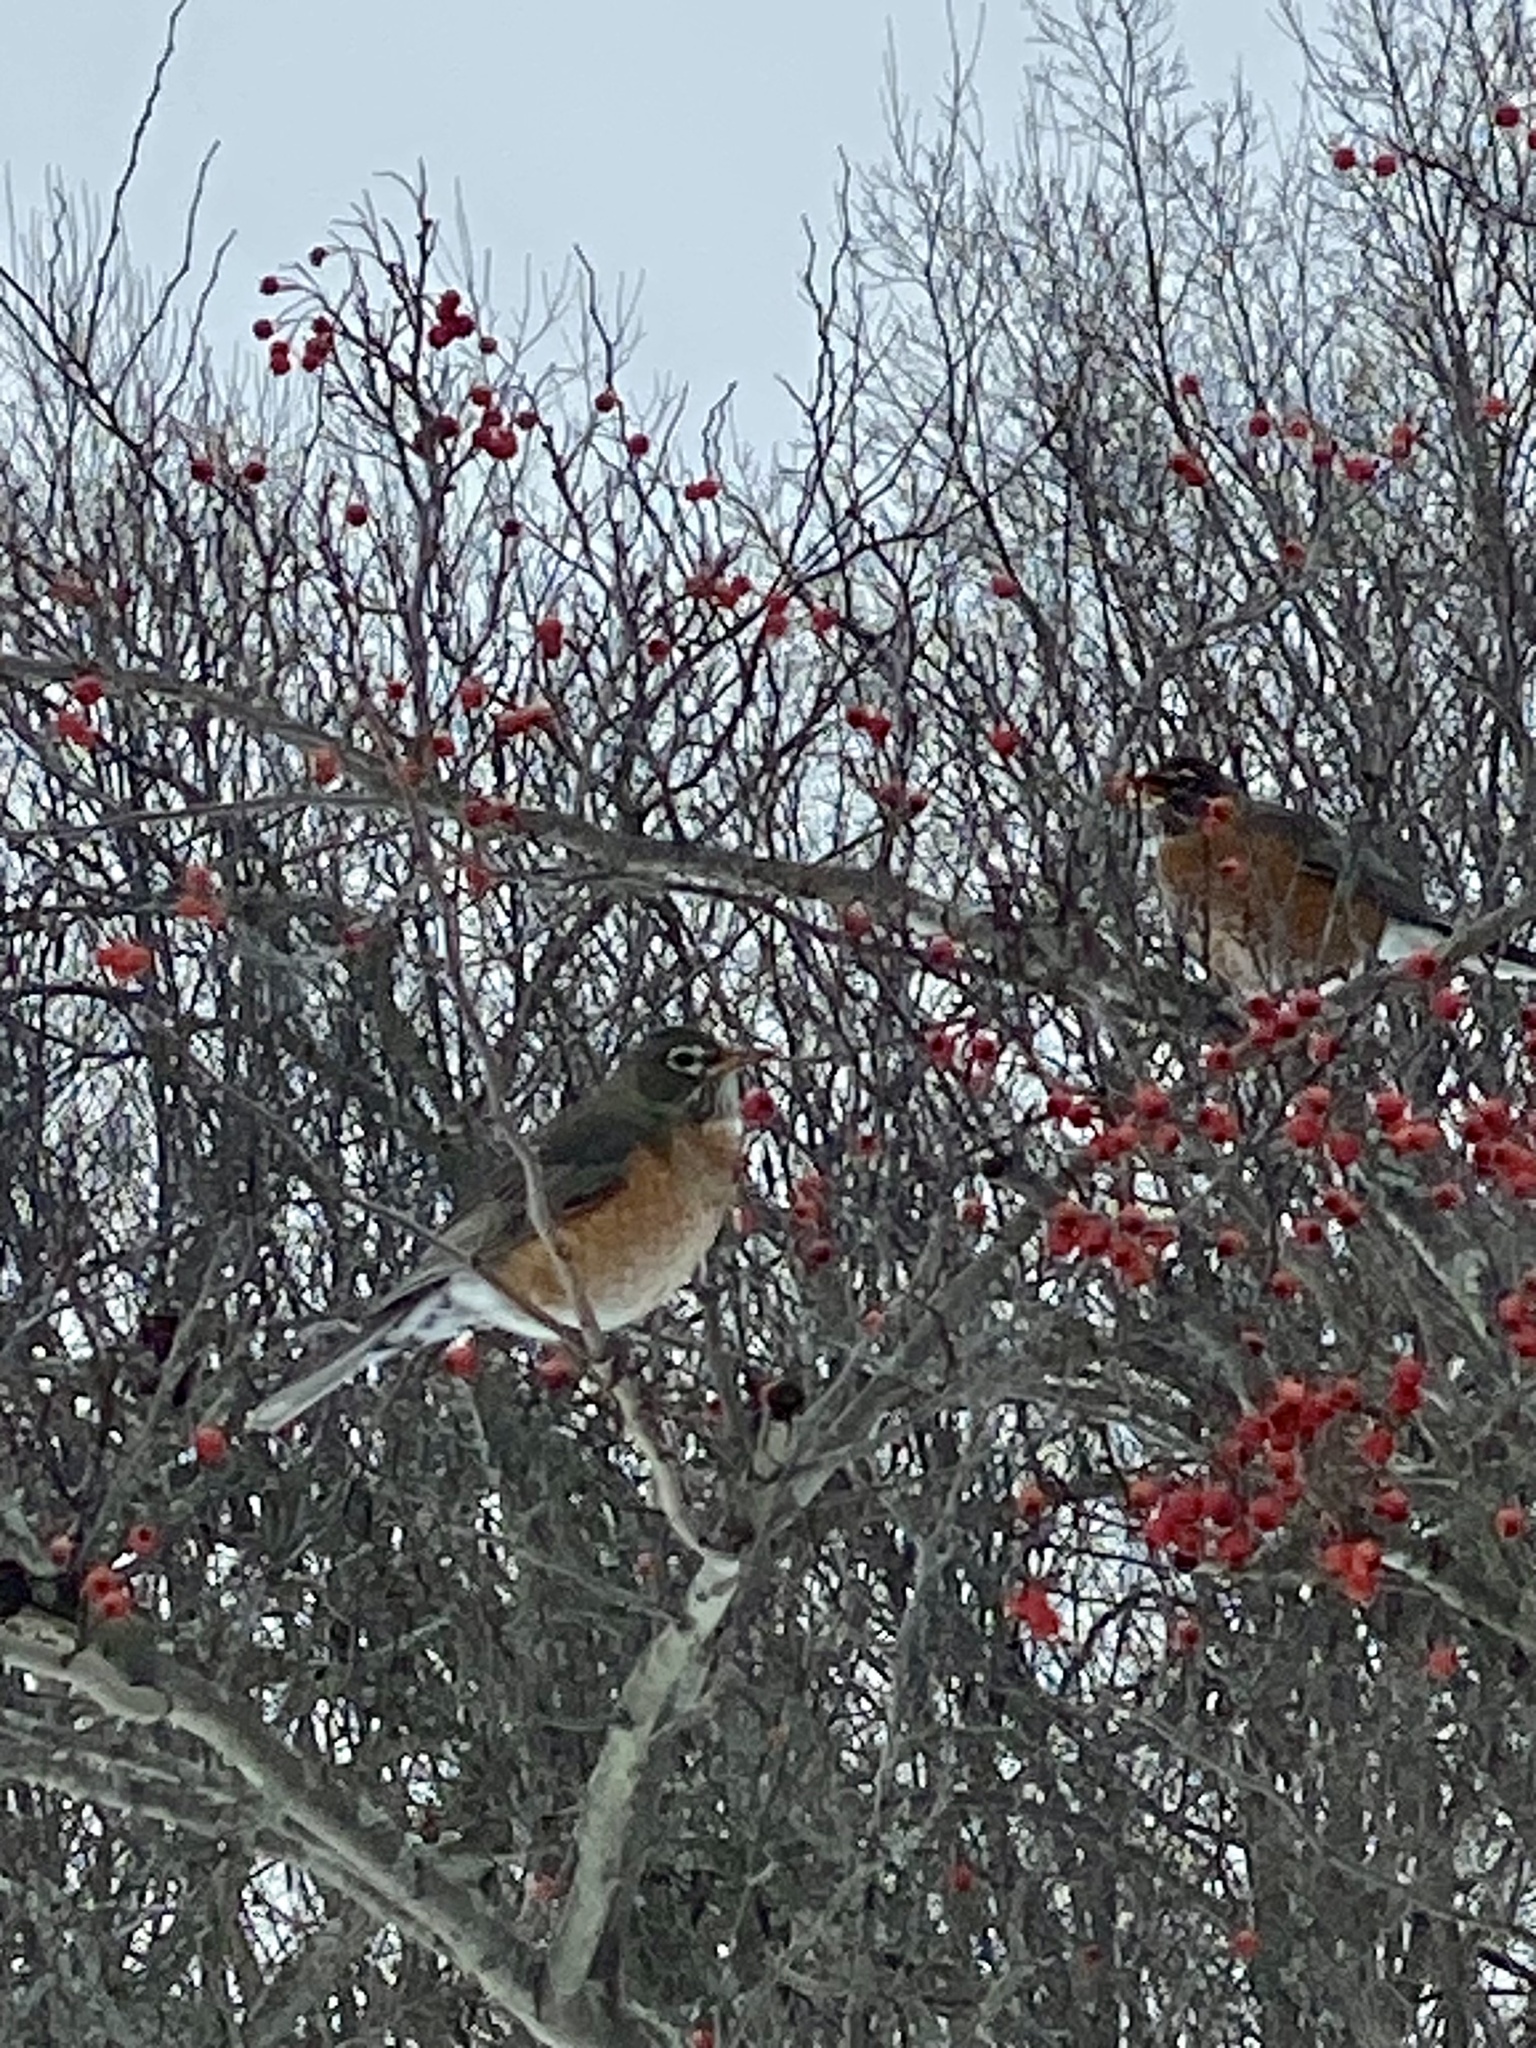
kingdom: Animalia
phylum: Chordata
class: Aves
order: Passeriformes
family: Turdidae
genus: Turdus
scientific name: Turdus migratorius
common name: American robin
